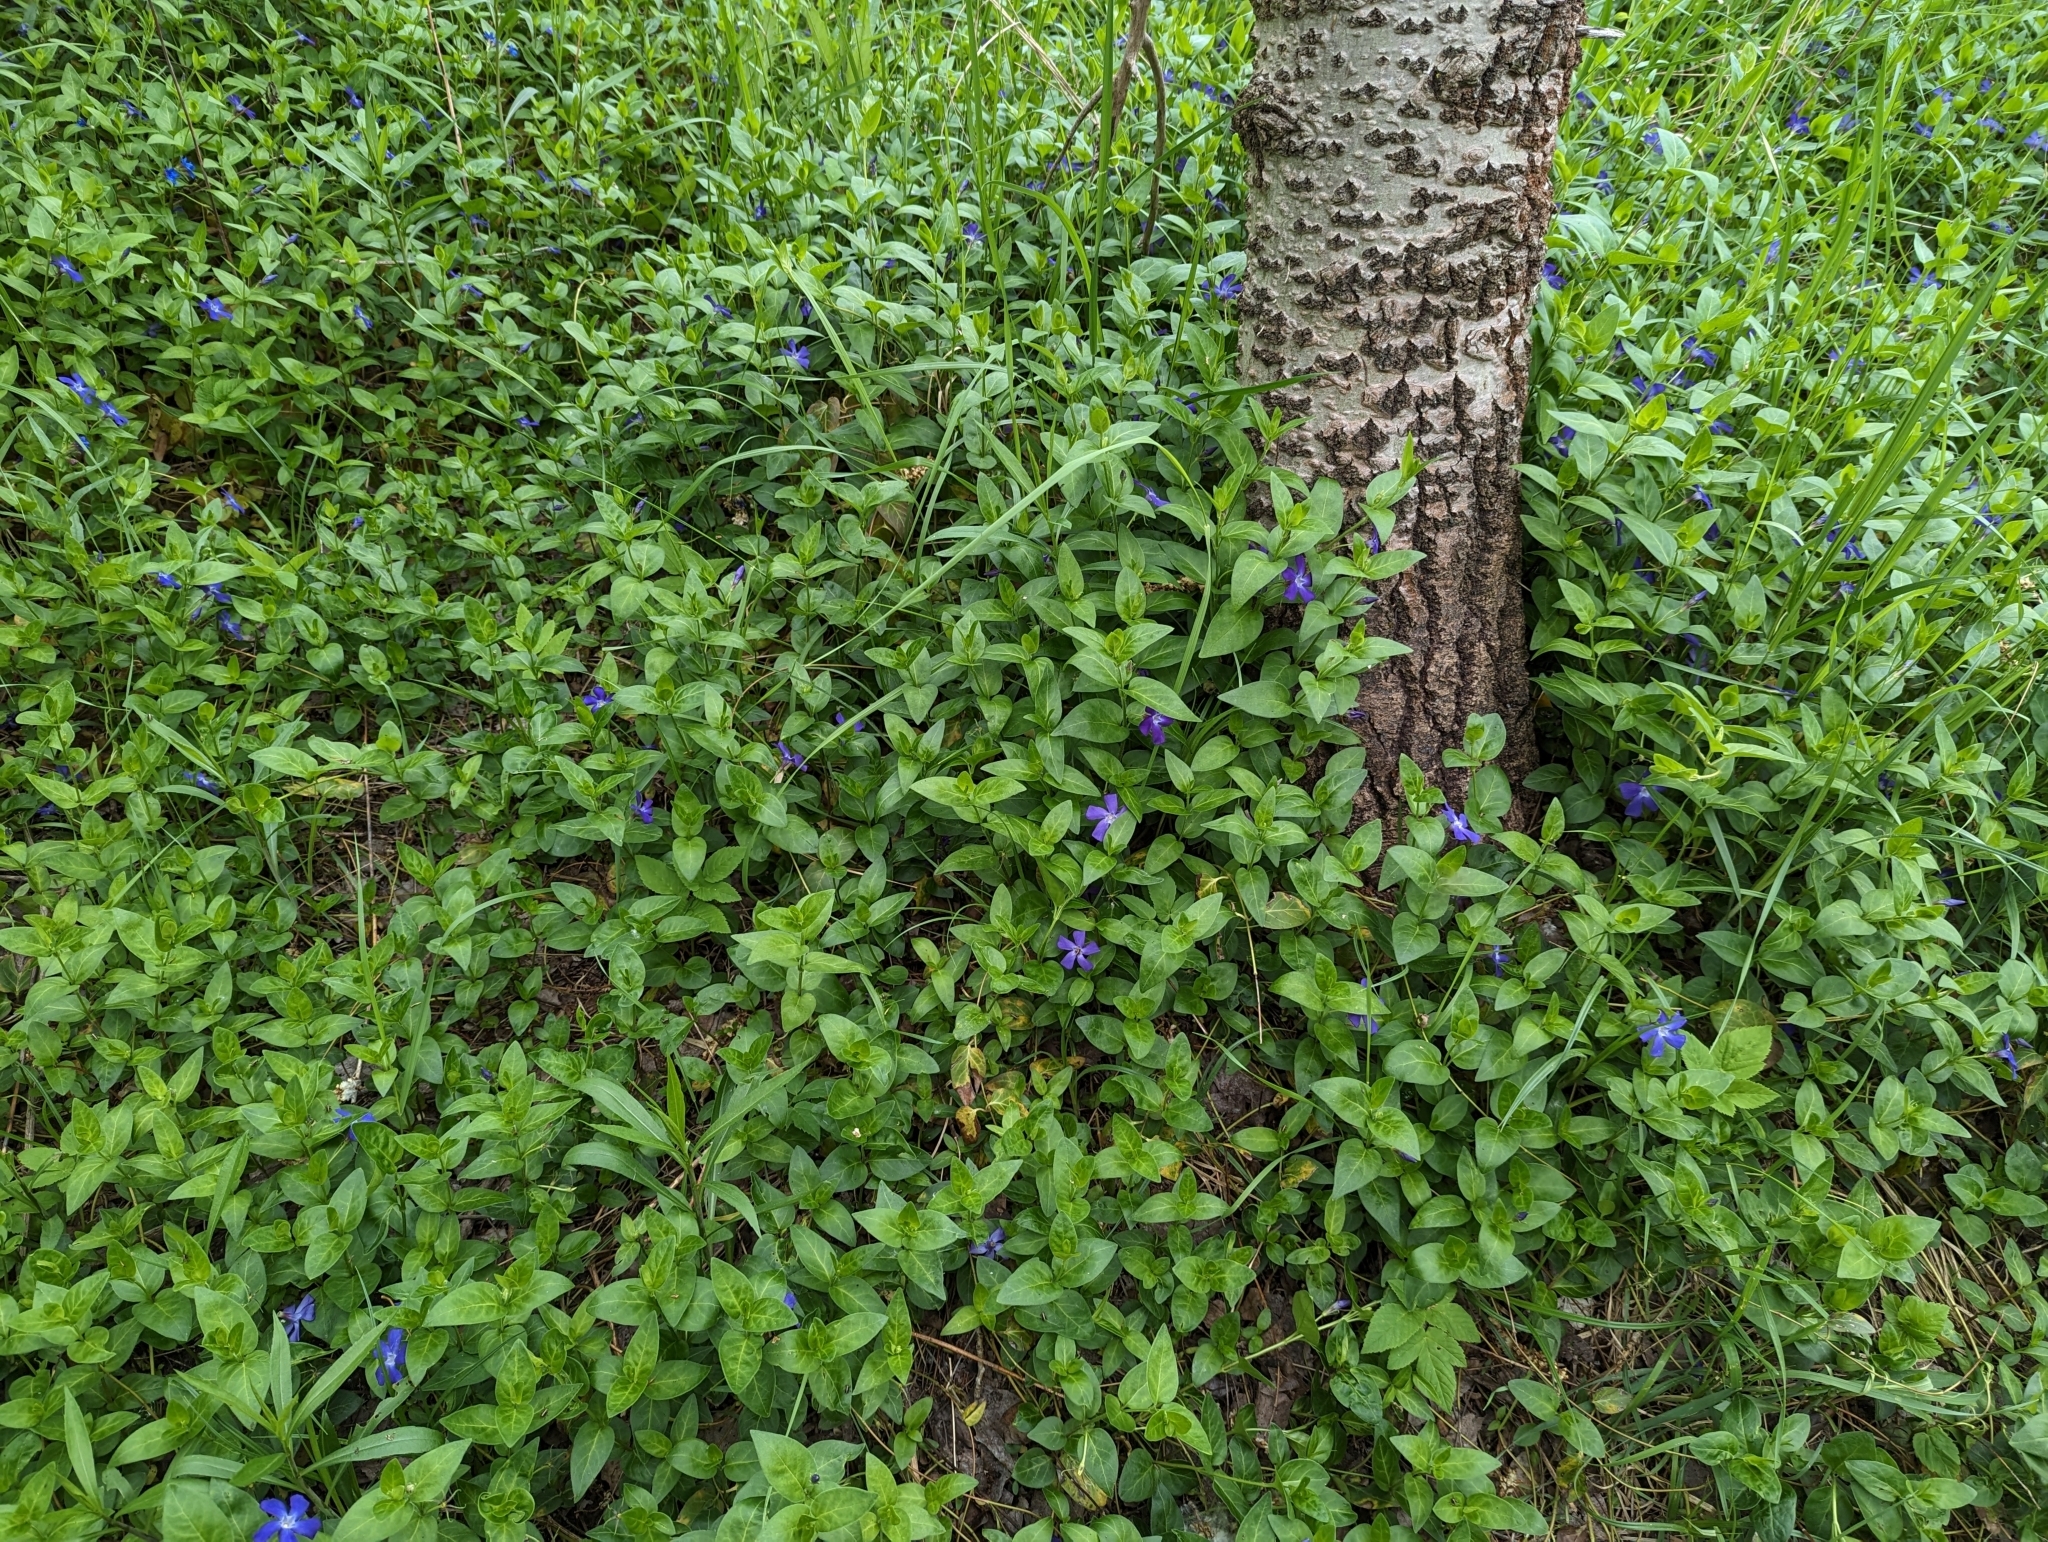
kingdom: Plantae
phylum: Tracheophyta
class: Magnoliopsida
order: Gentianales
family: Apocynaceae
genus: Vinca
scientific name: Vinca major
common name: Greater periwinkle
